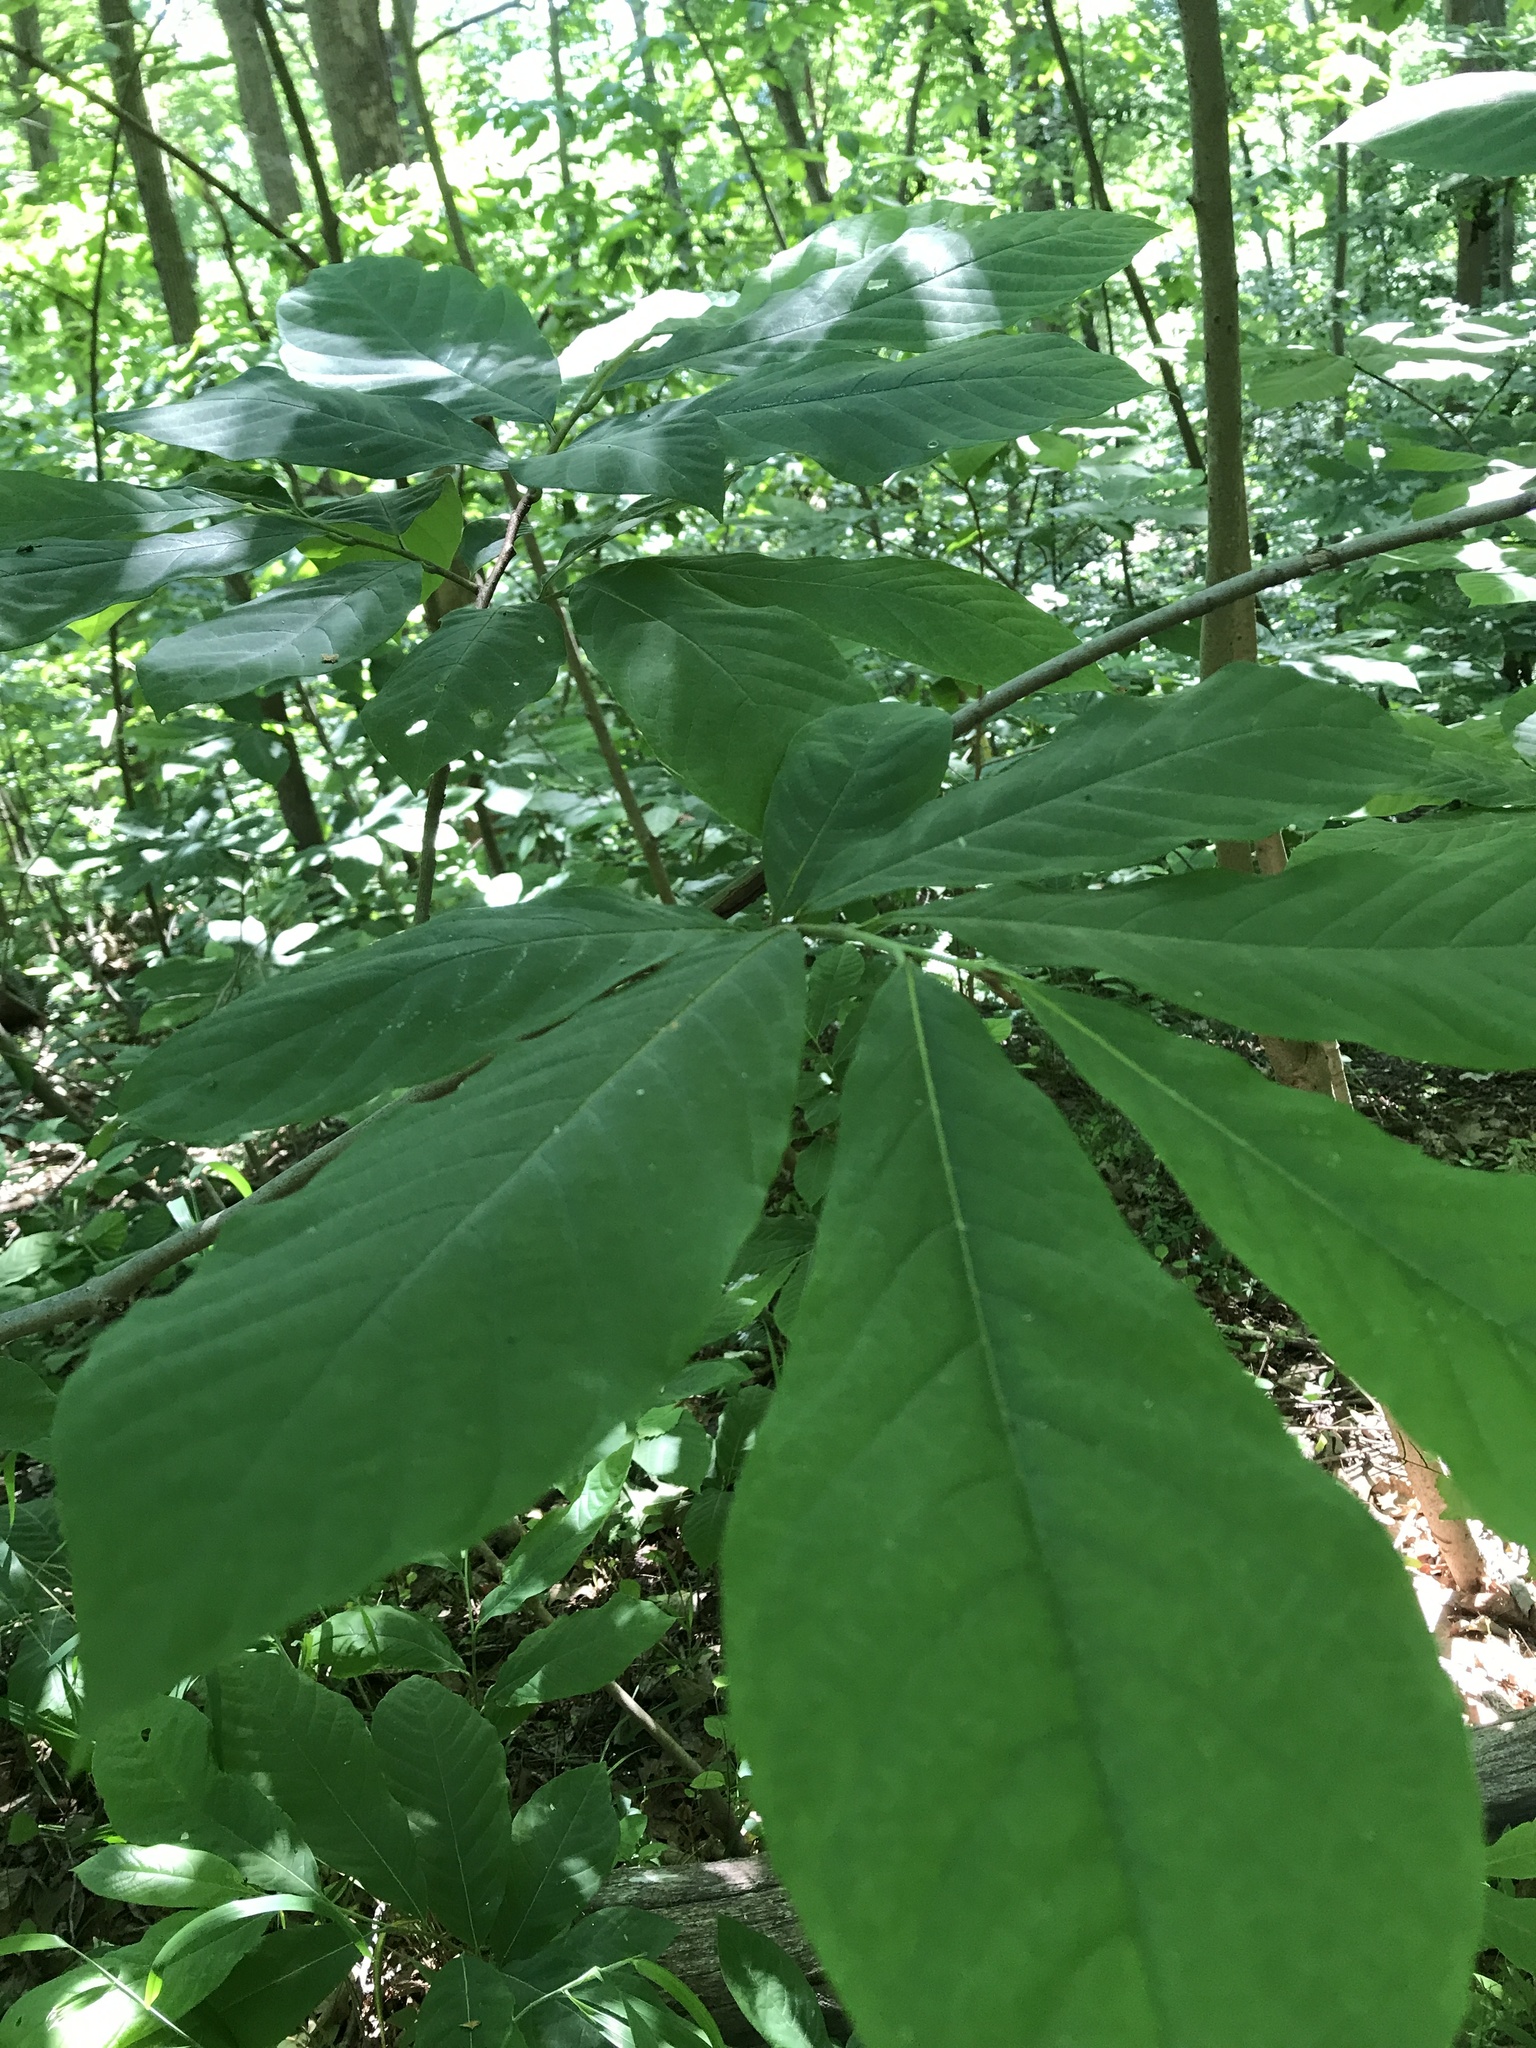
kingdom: Plantae
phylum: Tracheophyta
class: Magnoliopsida
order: Magnoliales
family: Annonaceae
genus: Asimina
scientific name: Asimina triloba
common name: Dog-banana
